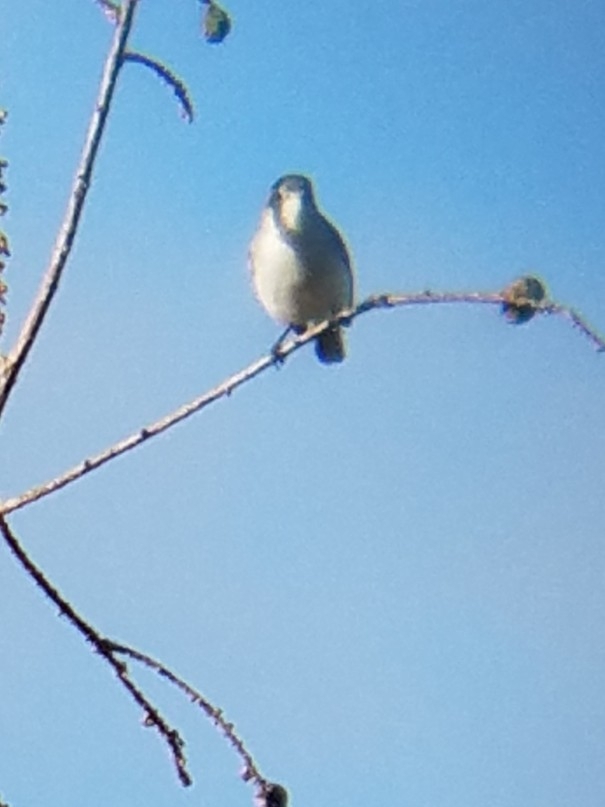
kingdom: Animalia
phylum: Chordata
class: Aves
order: Passeriformes
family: Polioptilidae
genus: Polioptila
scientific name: Polioptila caerulea
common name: Blue-gray gnatcatcher
